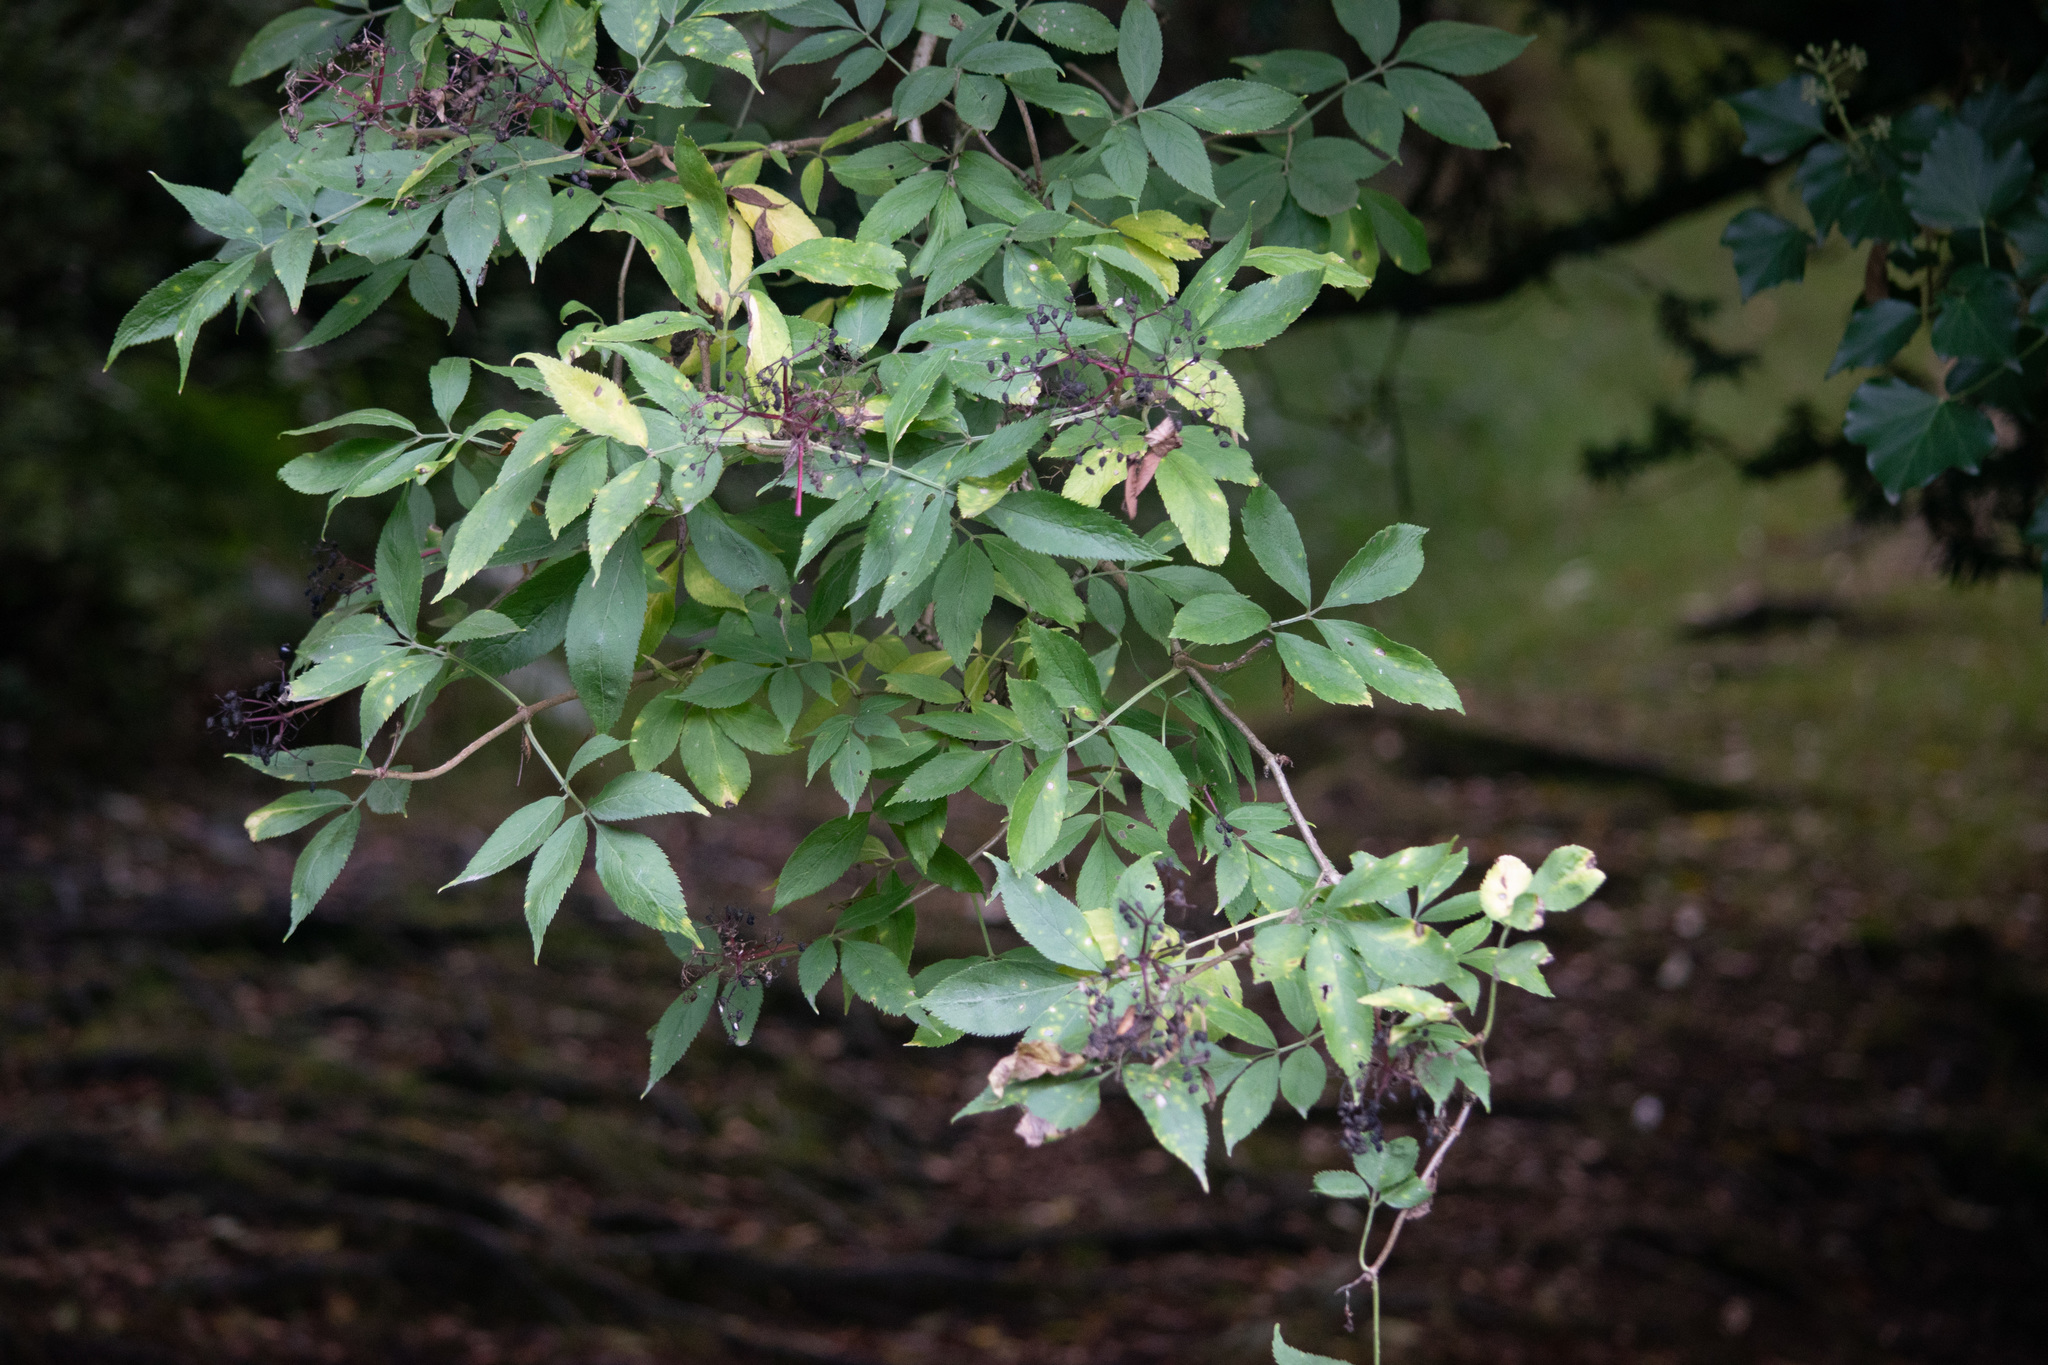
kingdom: Plantae
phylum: Tracheophyta
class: Magnoliopsida
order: Dipsacales
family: Viburnaceae
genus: Sambucus
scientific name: Sambucus nigra
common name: Elder
